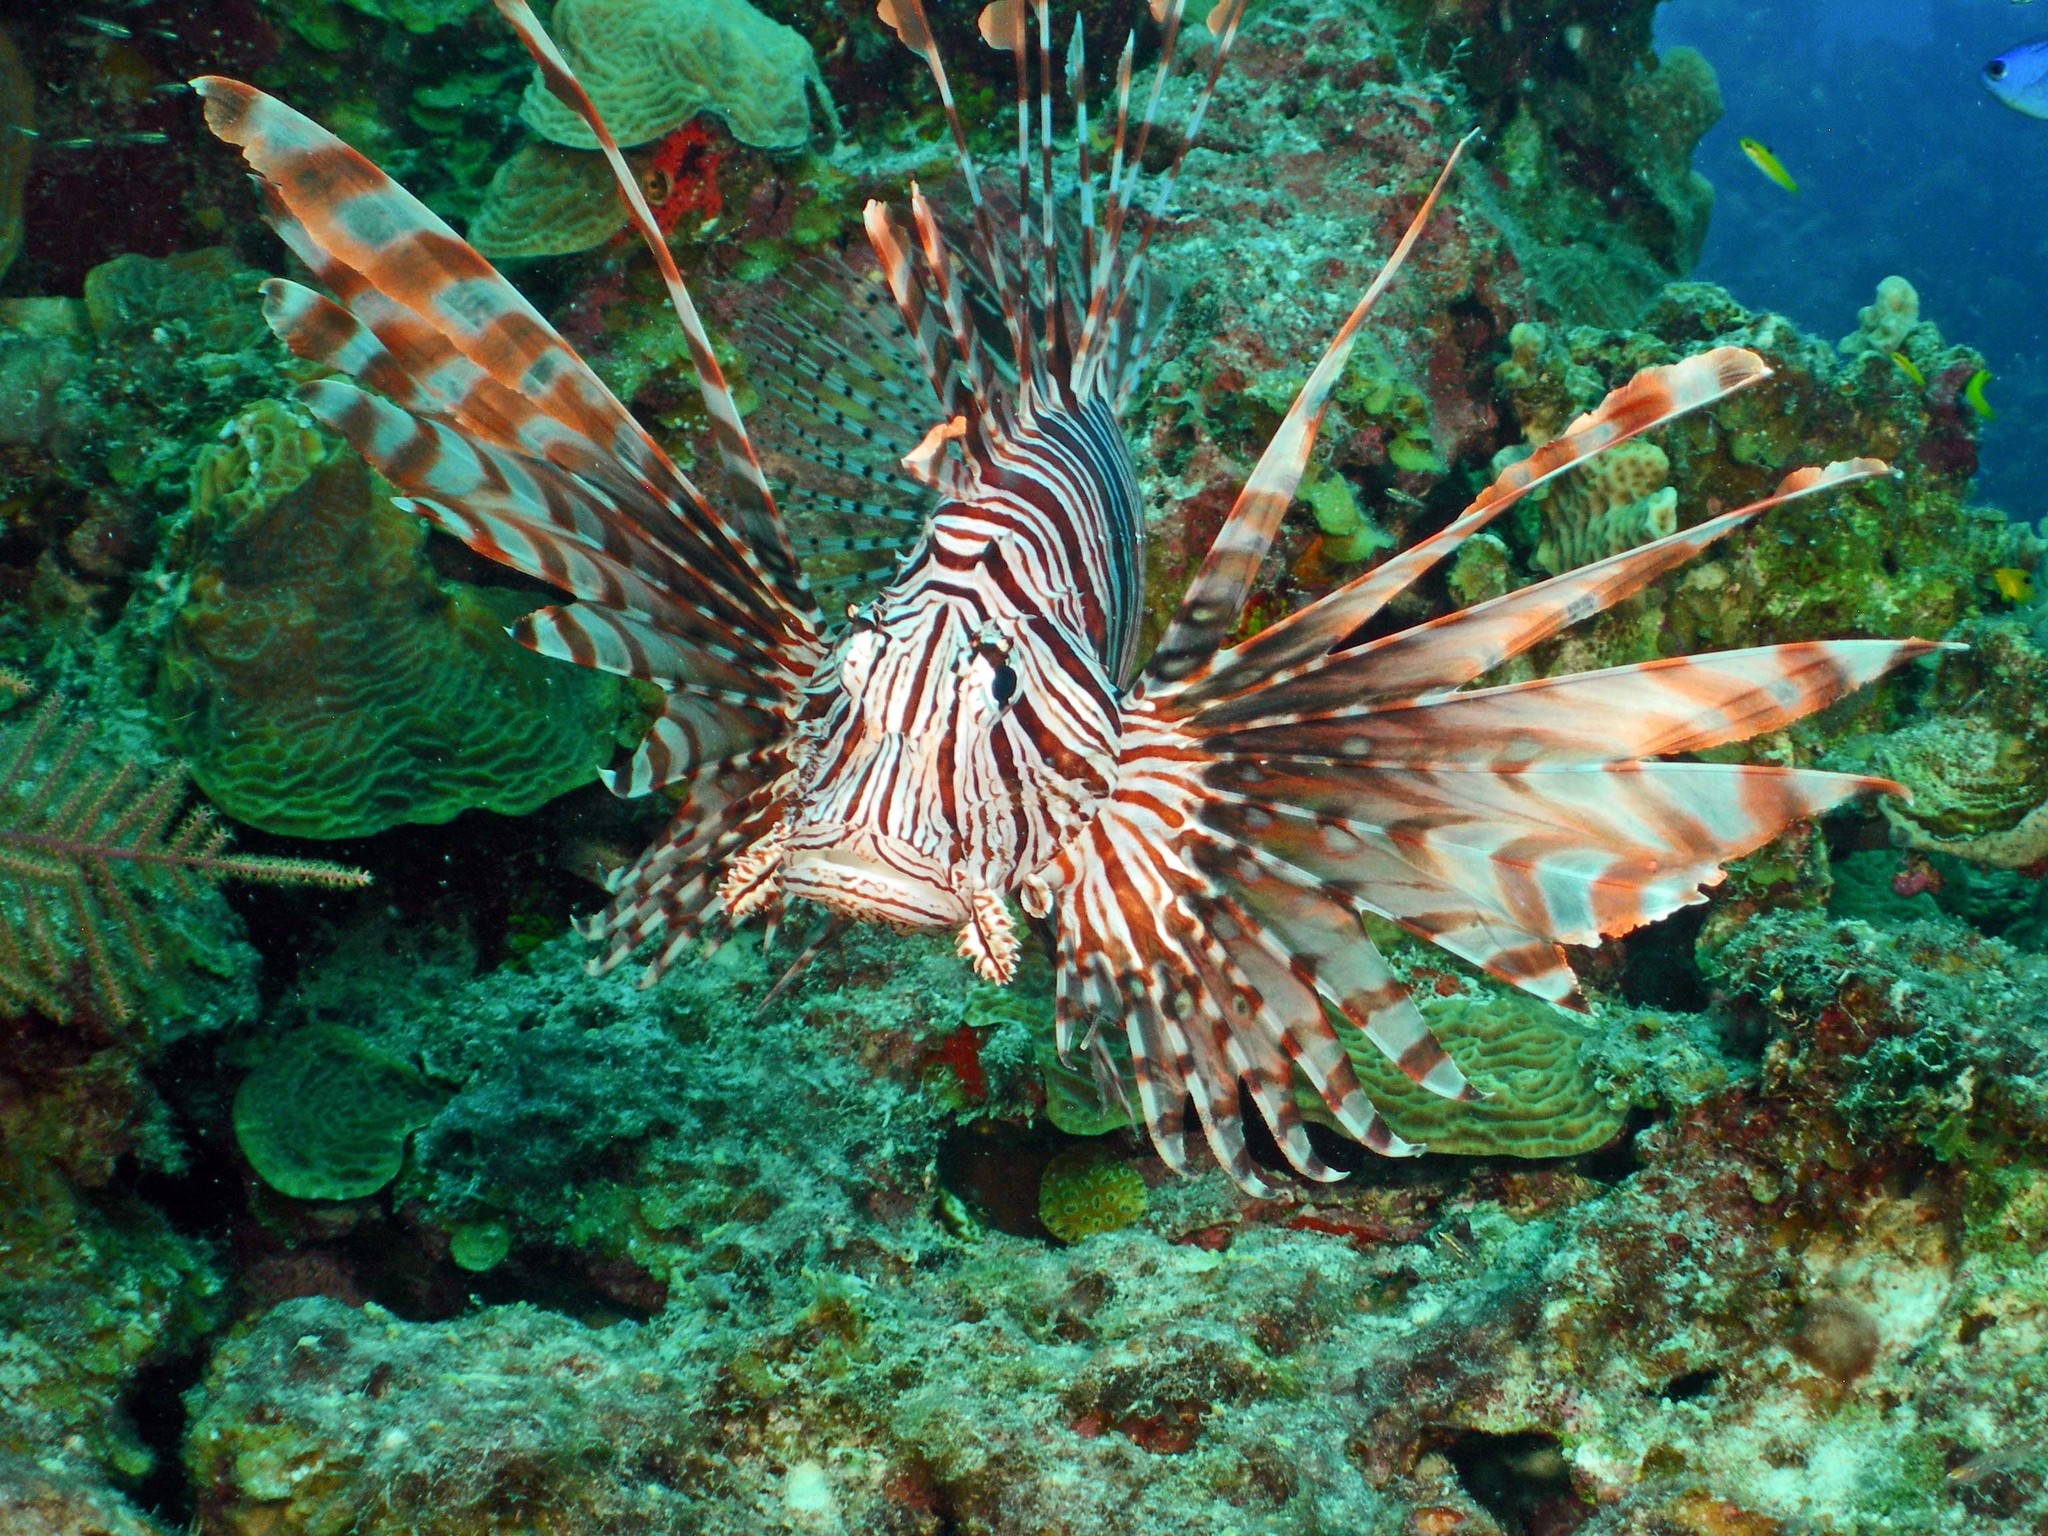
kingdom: Animalia
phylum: Chordata
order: Scorpaeniformes
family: Scorpaenidae
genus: Pterois
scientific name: Pterois volitans
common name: Lionfish
